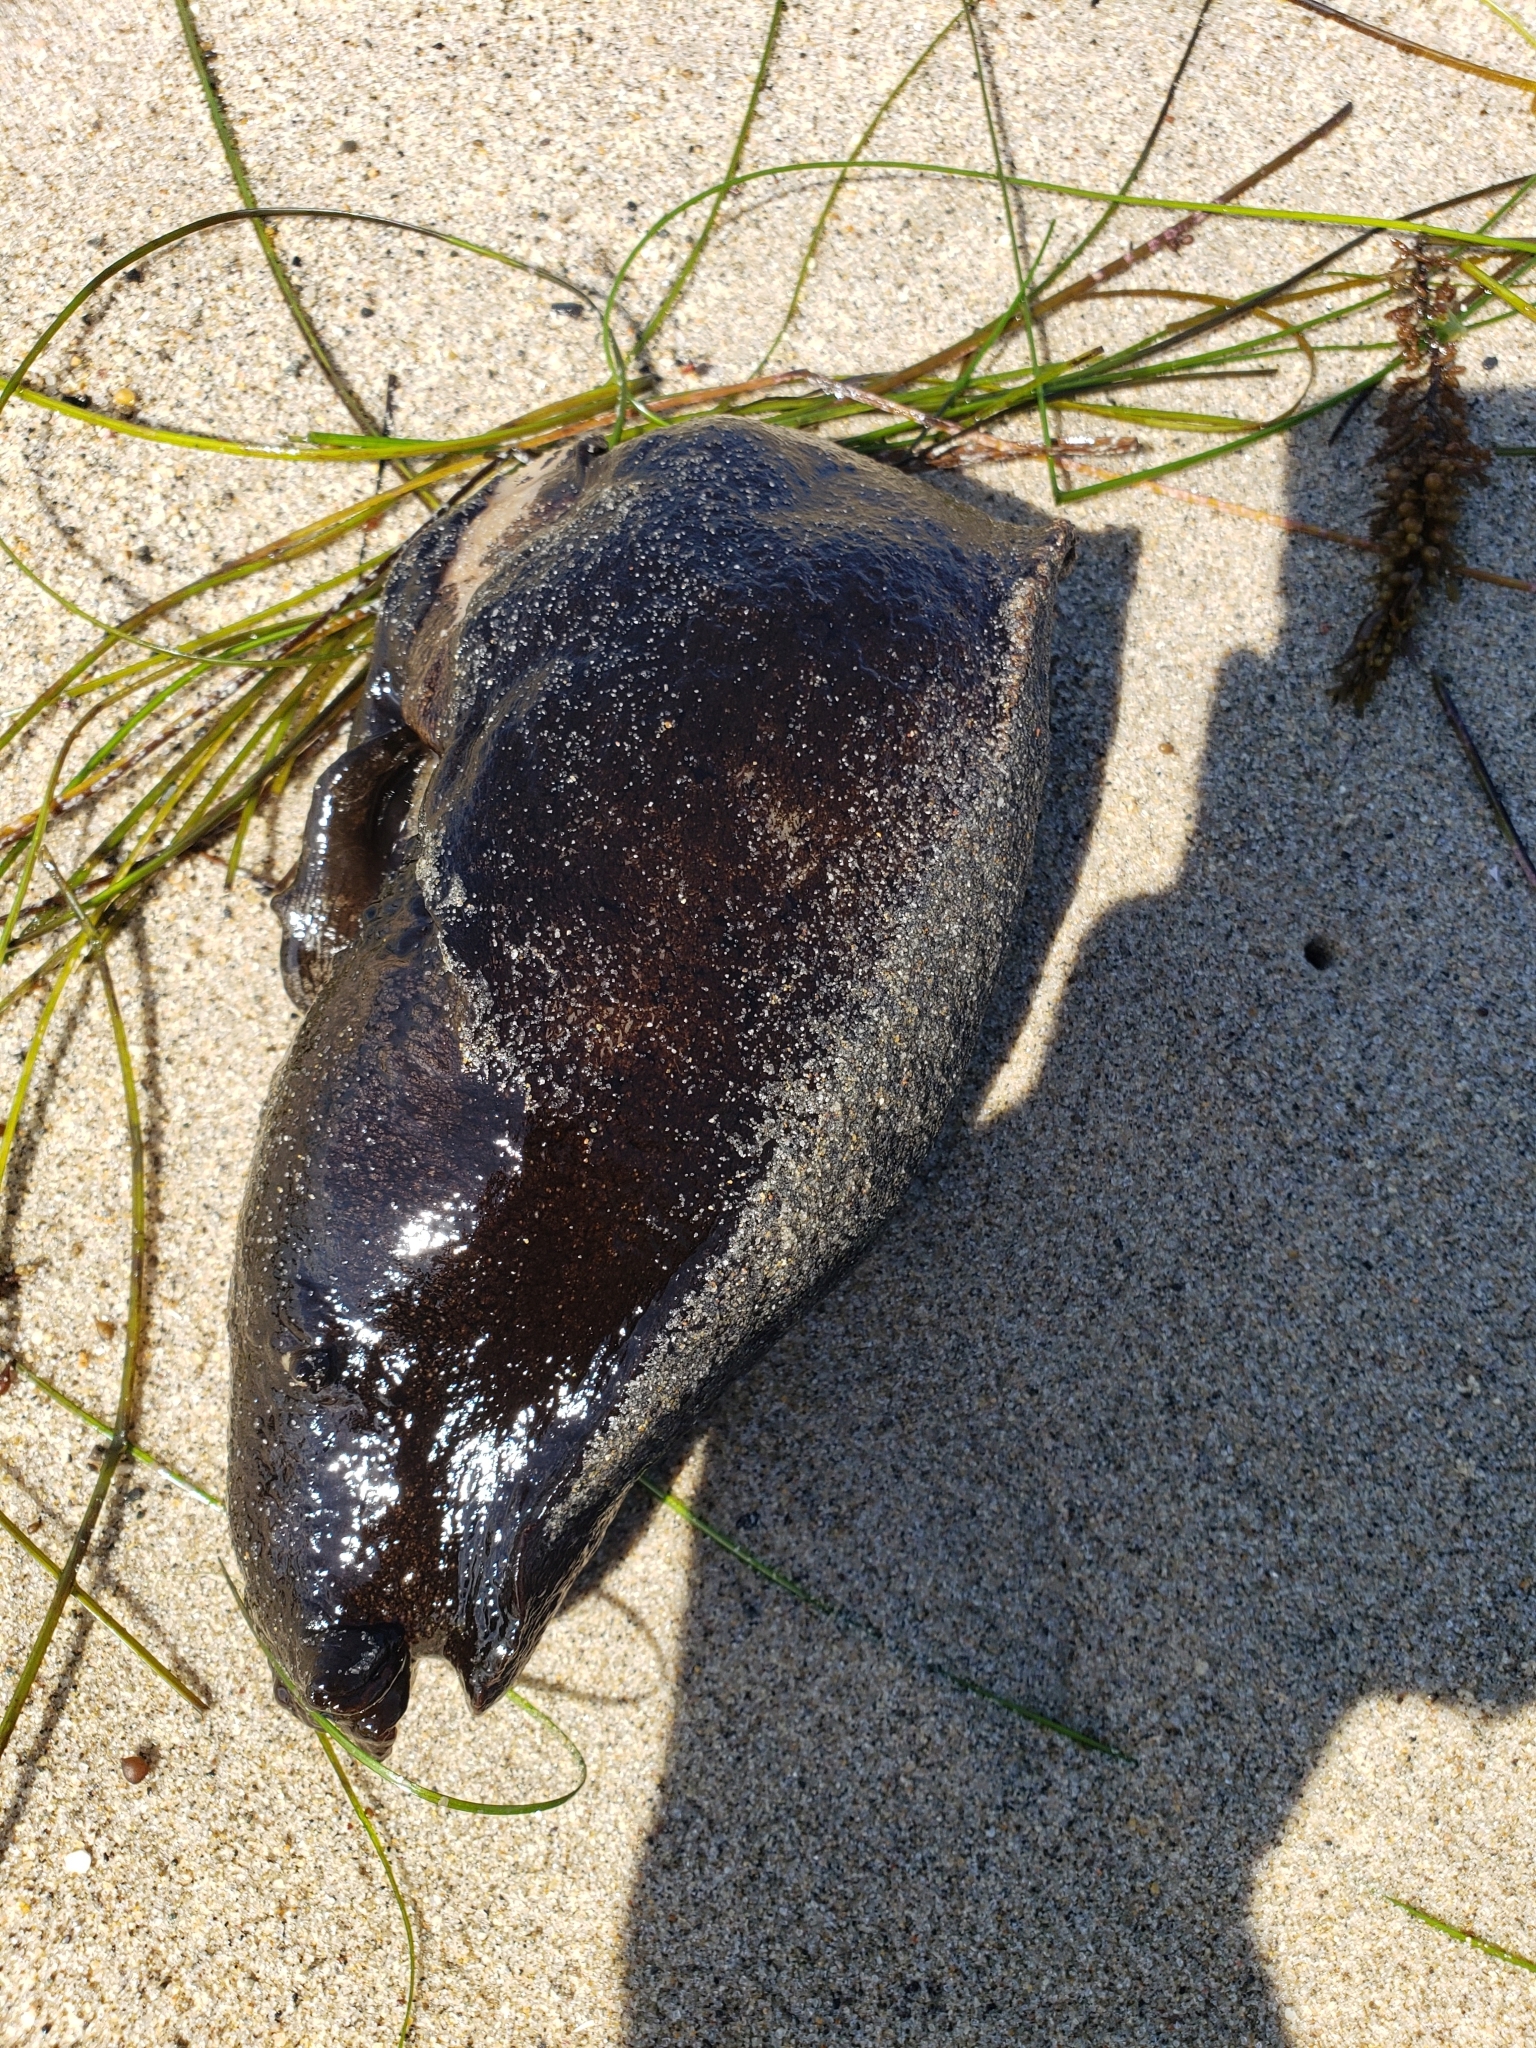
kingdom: Animalia
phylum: Mollusca
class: Gastropoda
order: Aplysiida
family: Aplysiidae
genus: Aplysia
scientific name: Aplysia vaccaria
